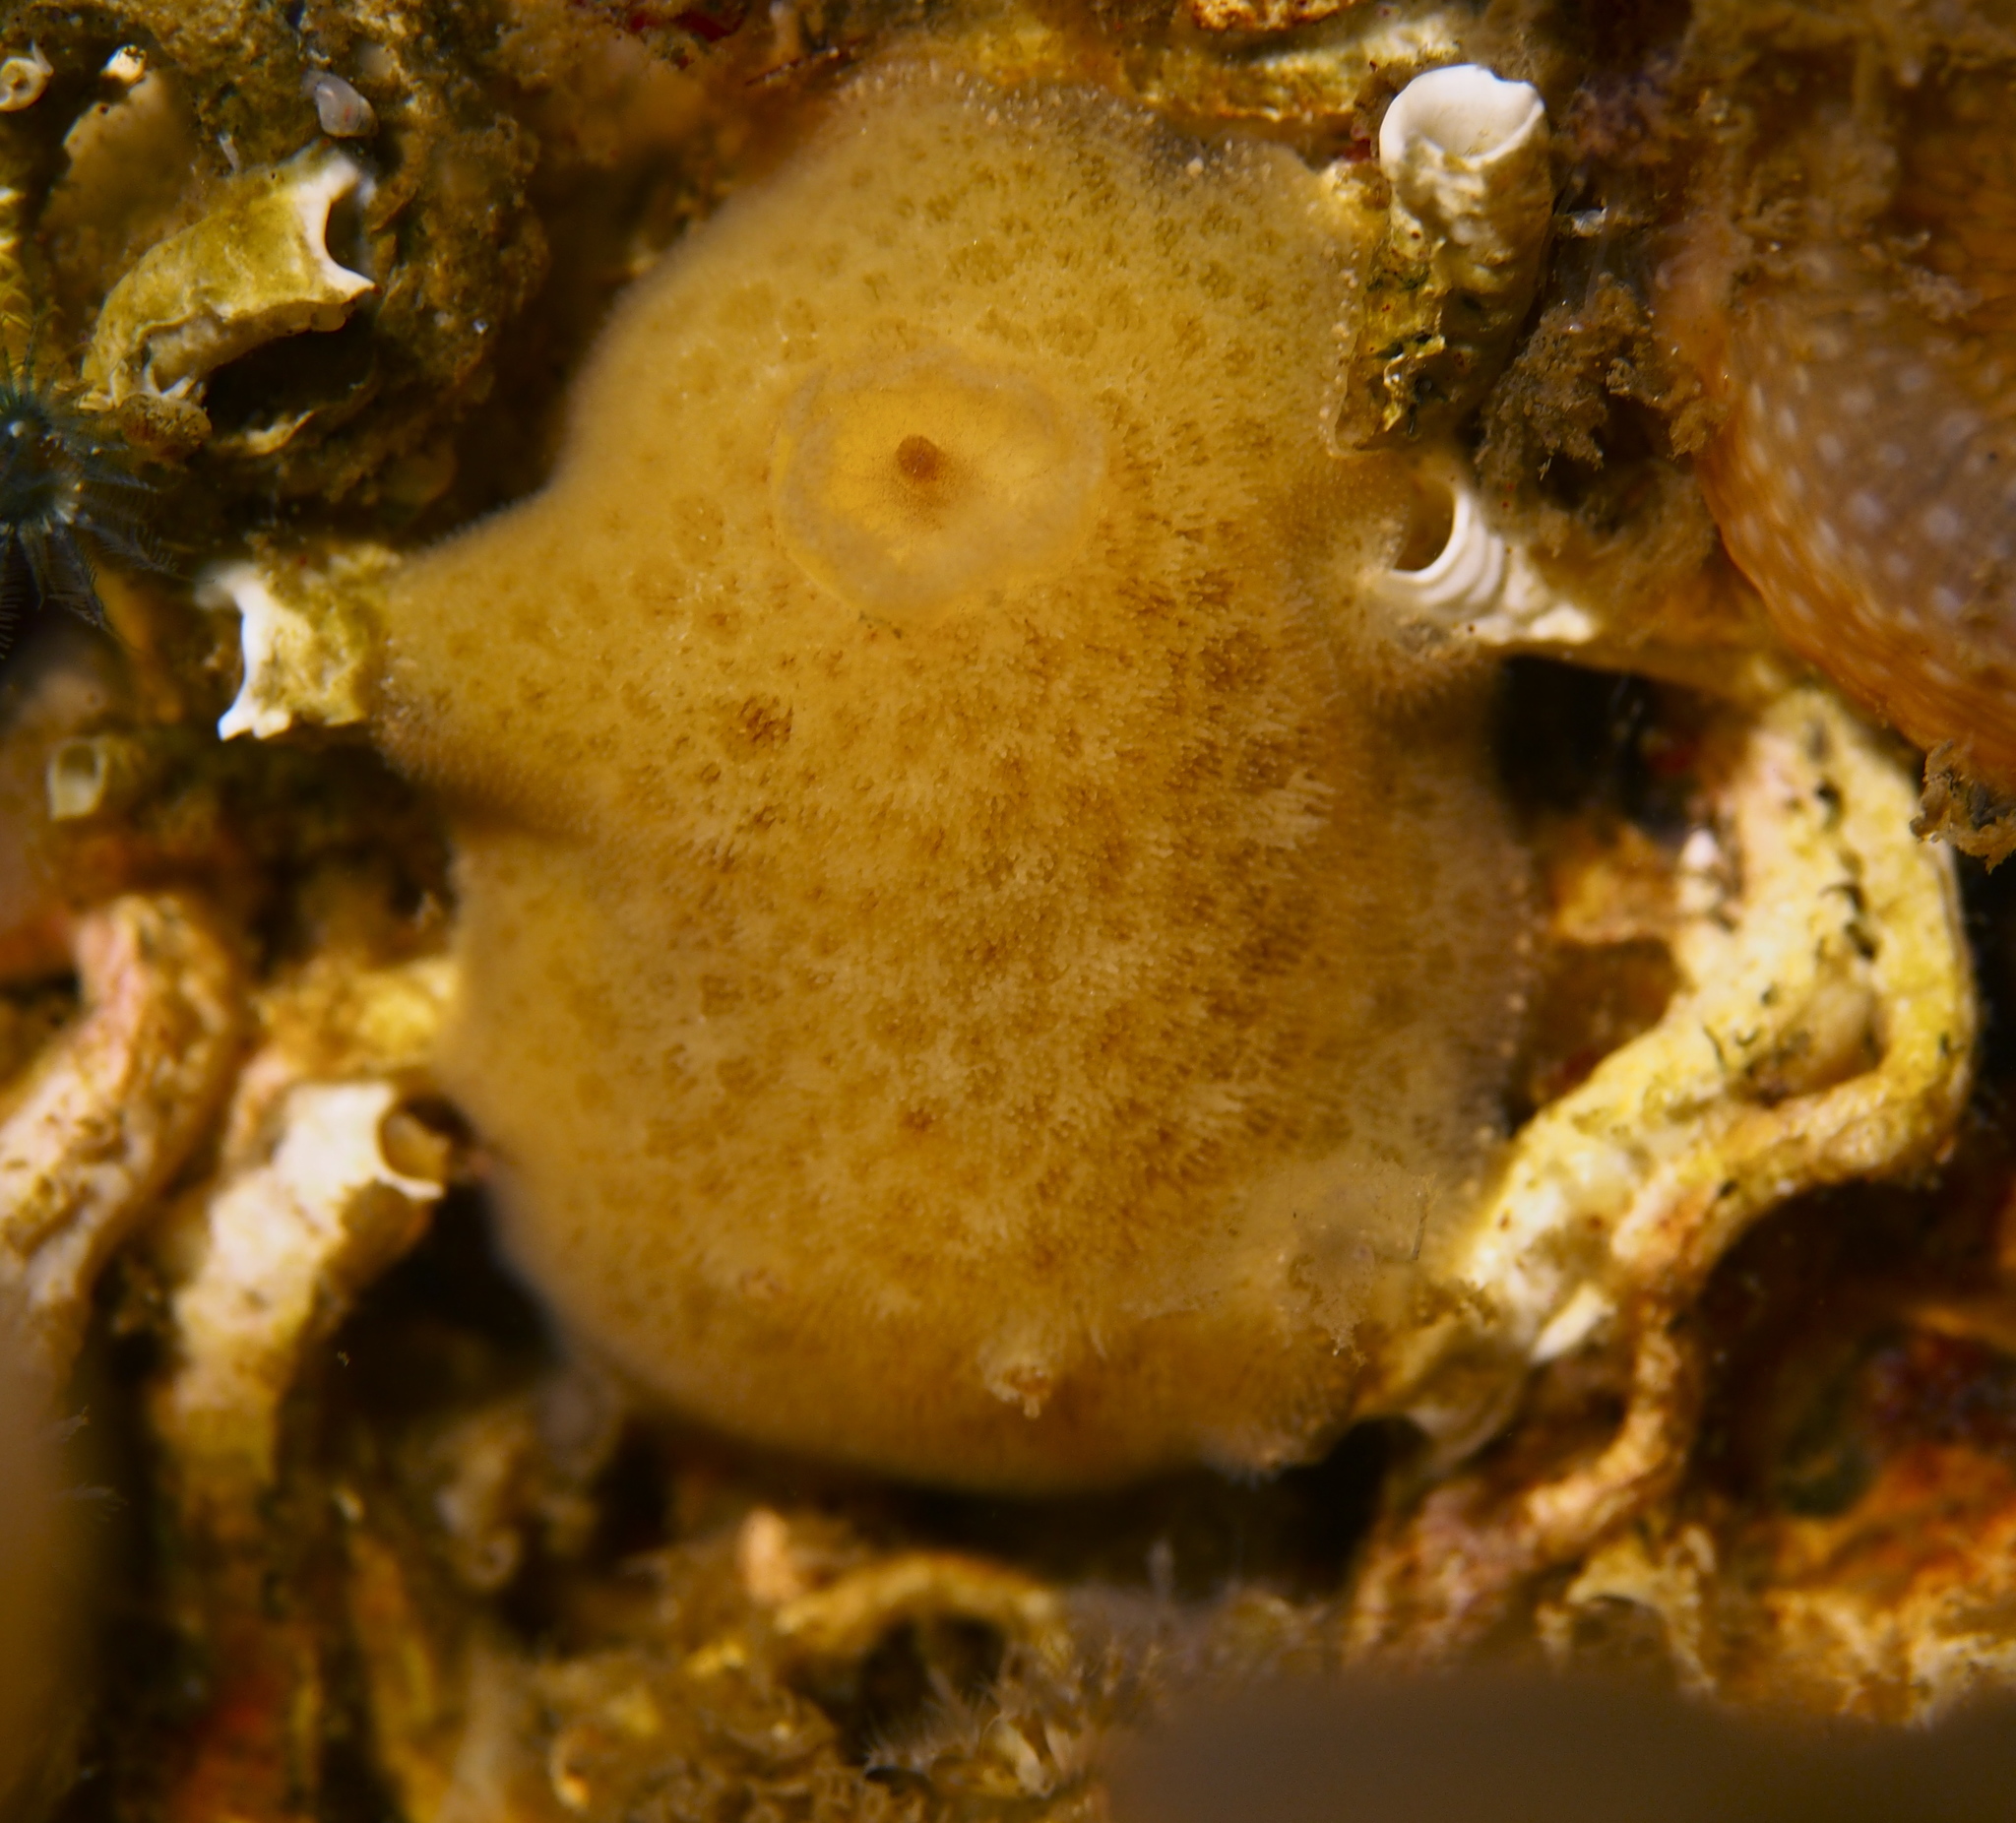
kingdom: Animalia
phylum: Mollusca
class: Gastropoda
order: Nudibranchia
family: Discodorididae
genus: Jorunna
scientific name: Jorunna tomentosa
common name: Grey sea slug
